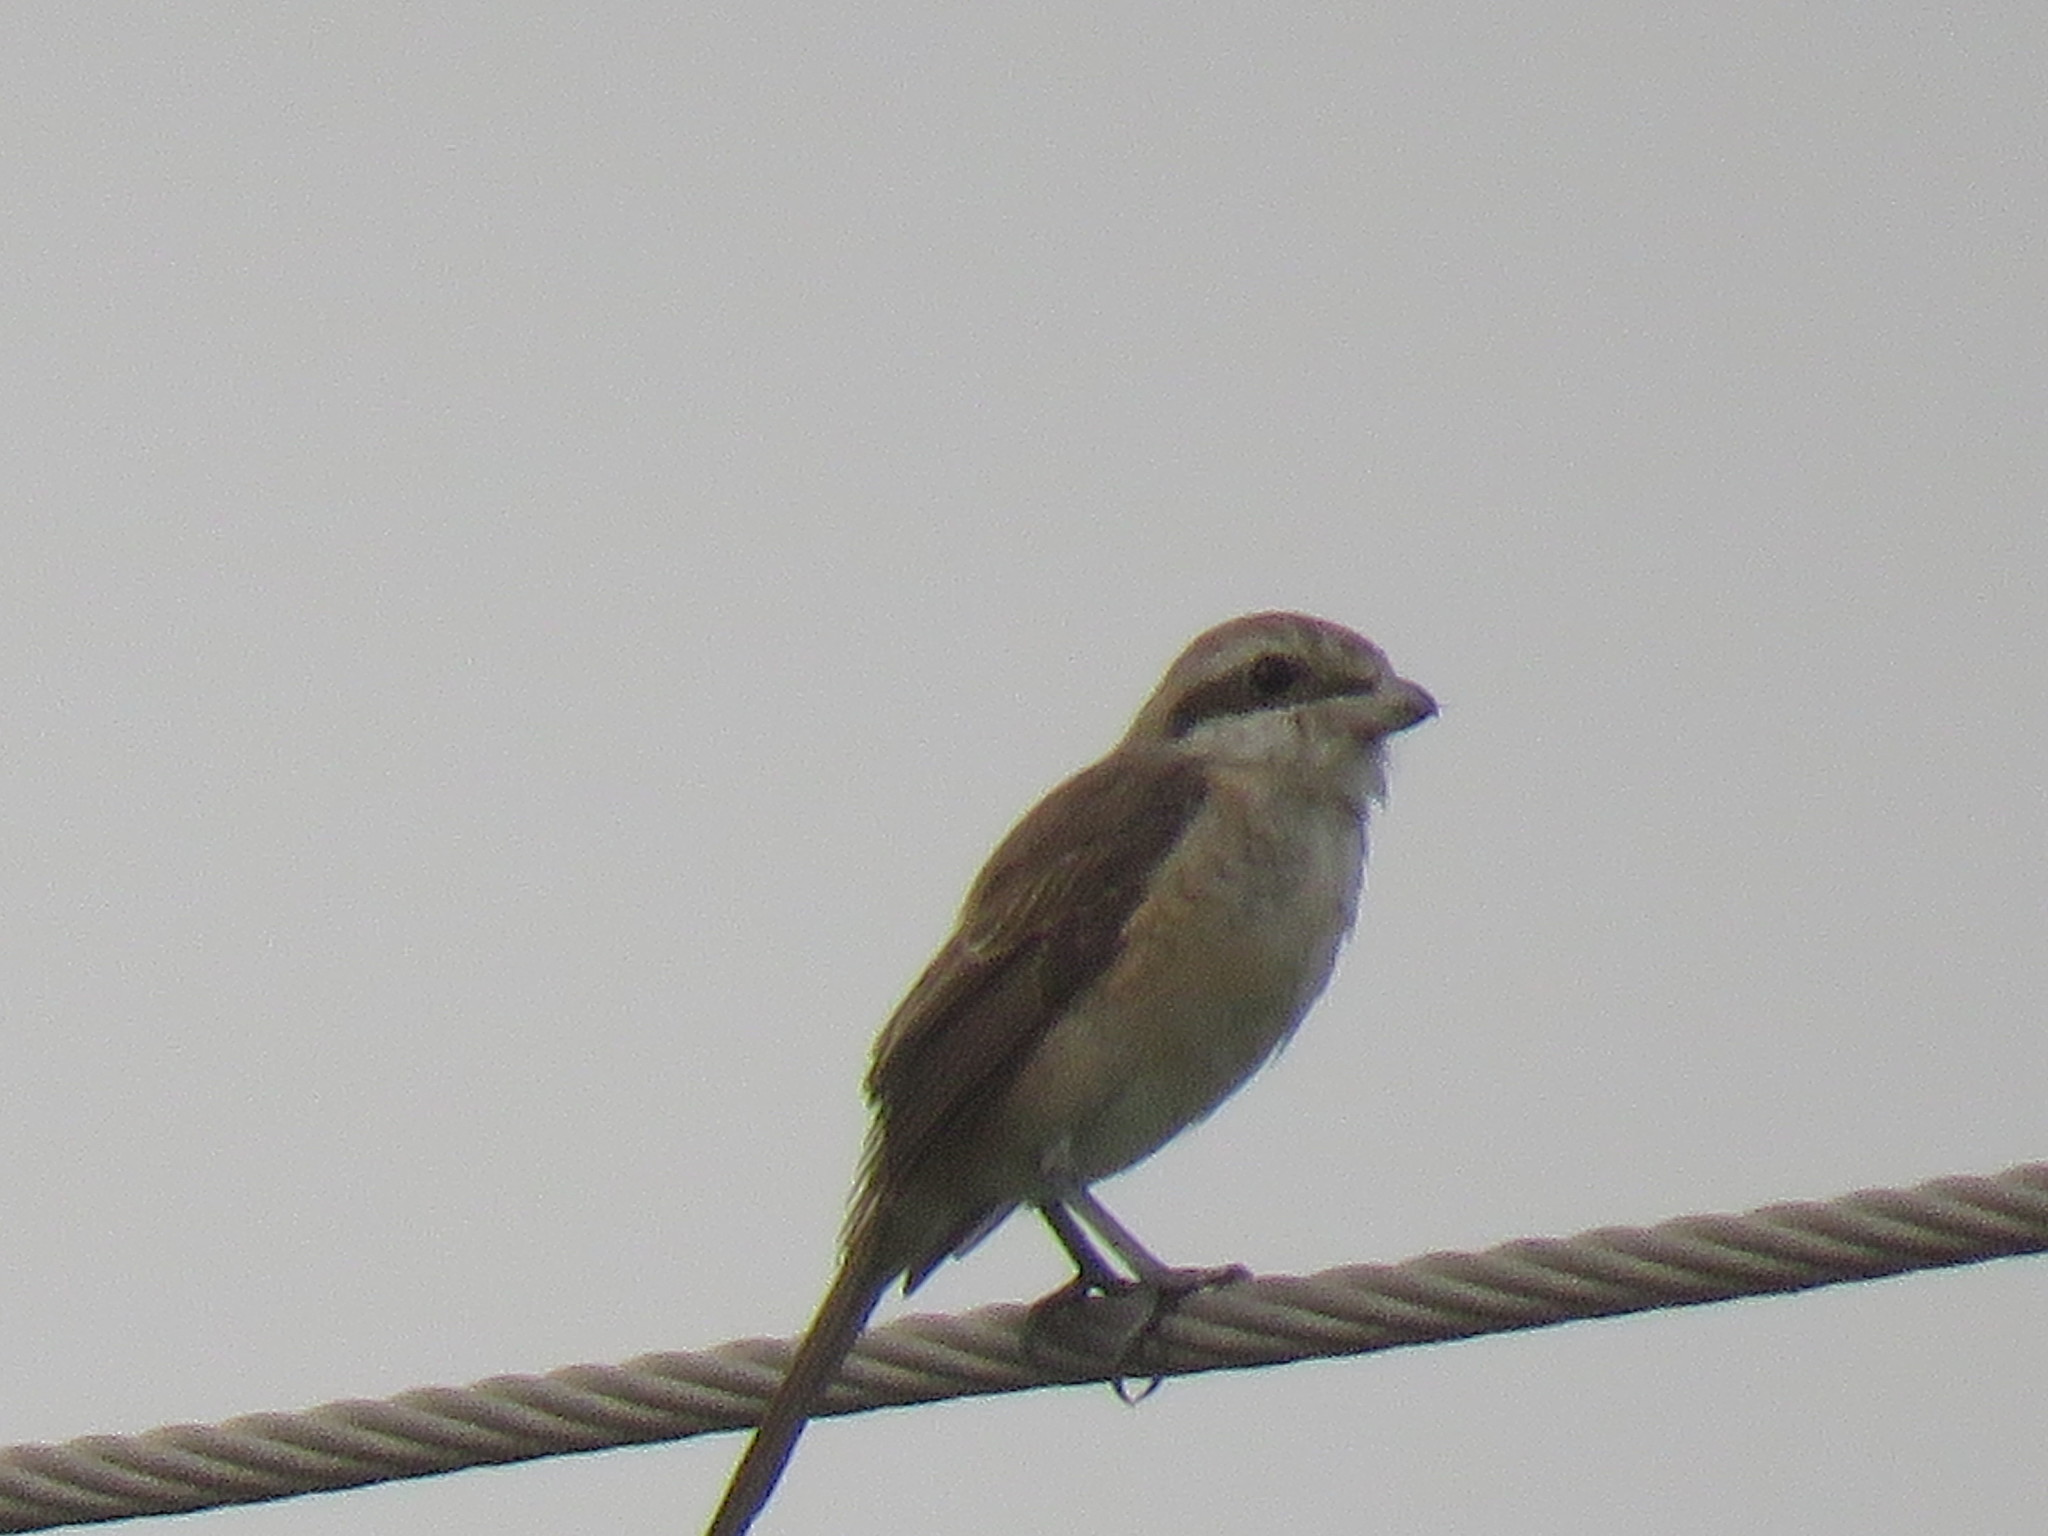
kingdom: Animalia
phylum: Chordata
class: Aves
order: Passeriformes
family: Laniidae
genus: Lanius
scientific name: Lanius cristatus
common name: Brown shrike
